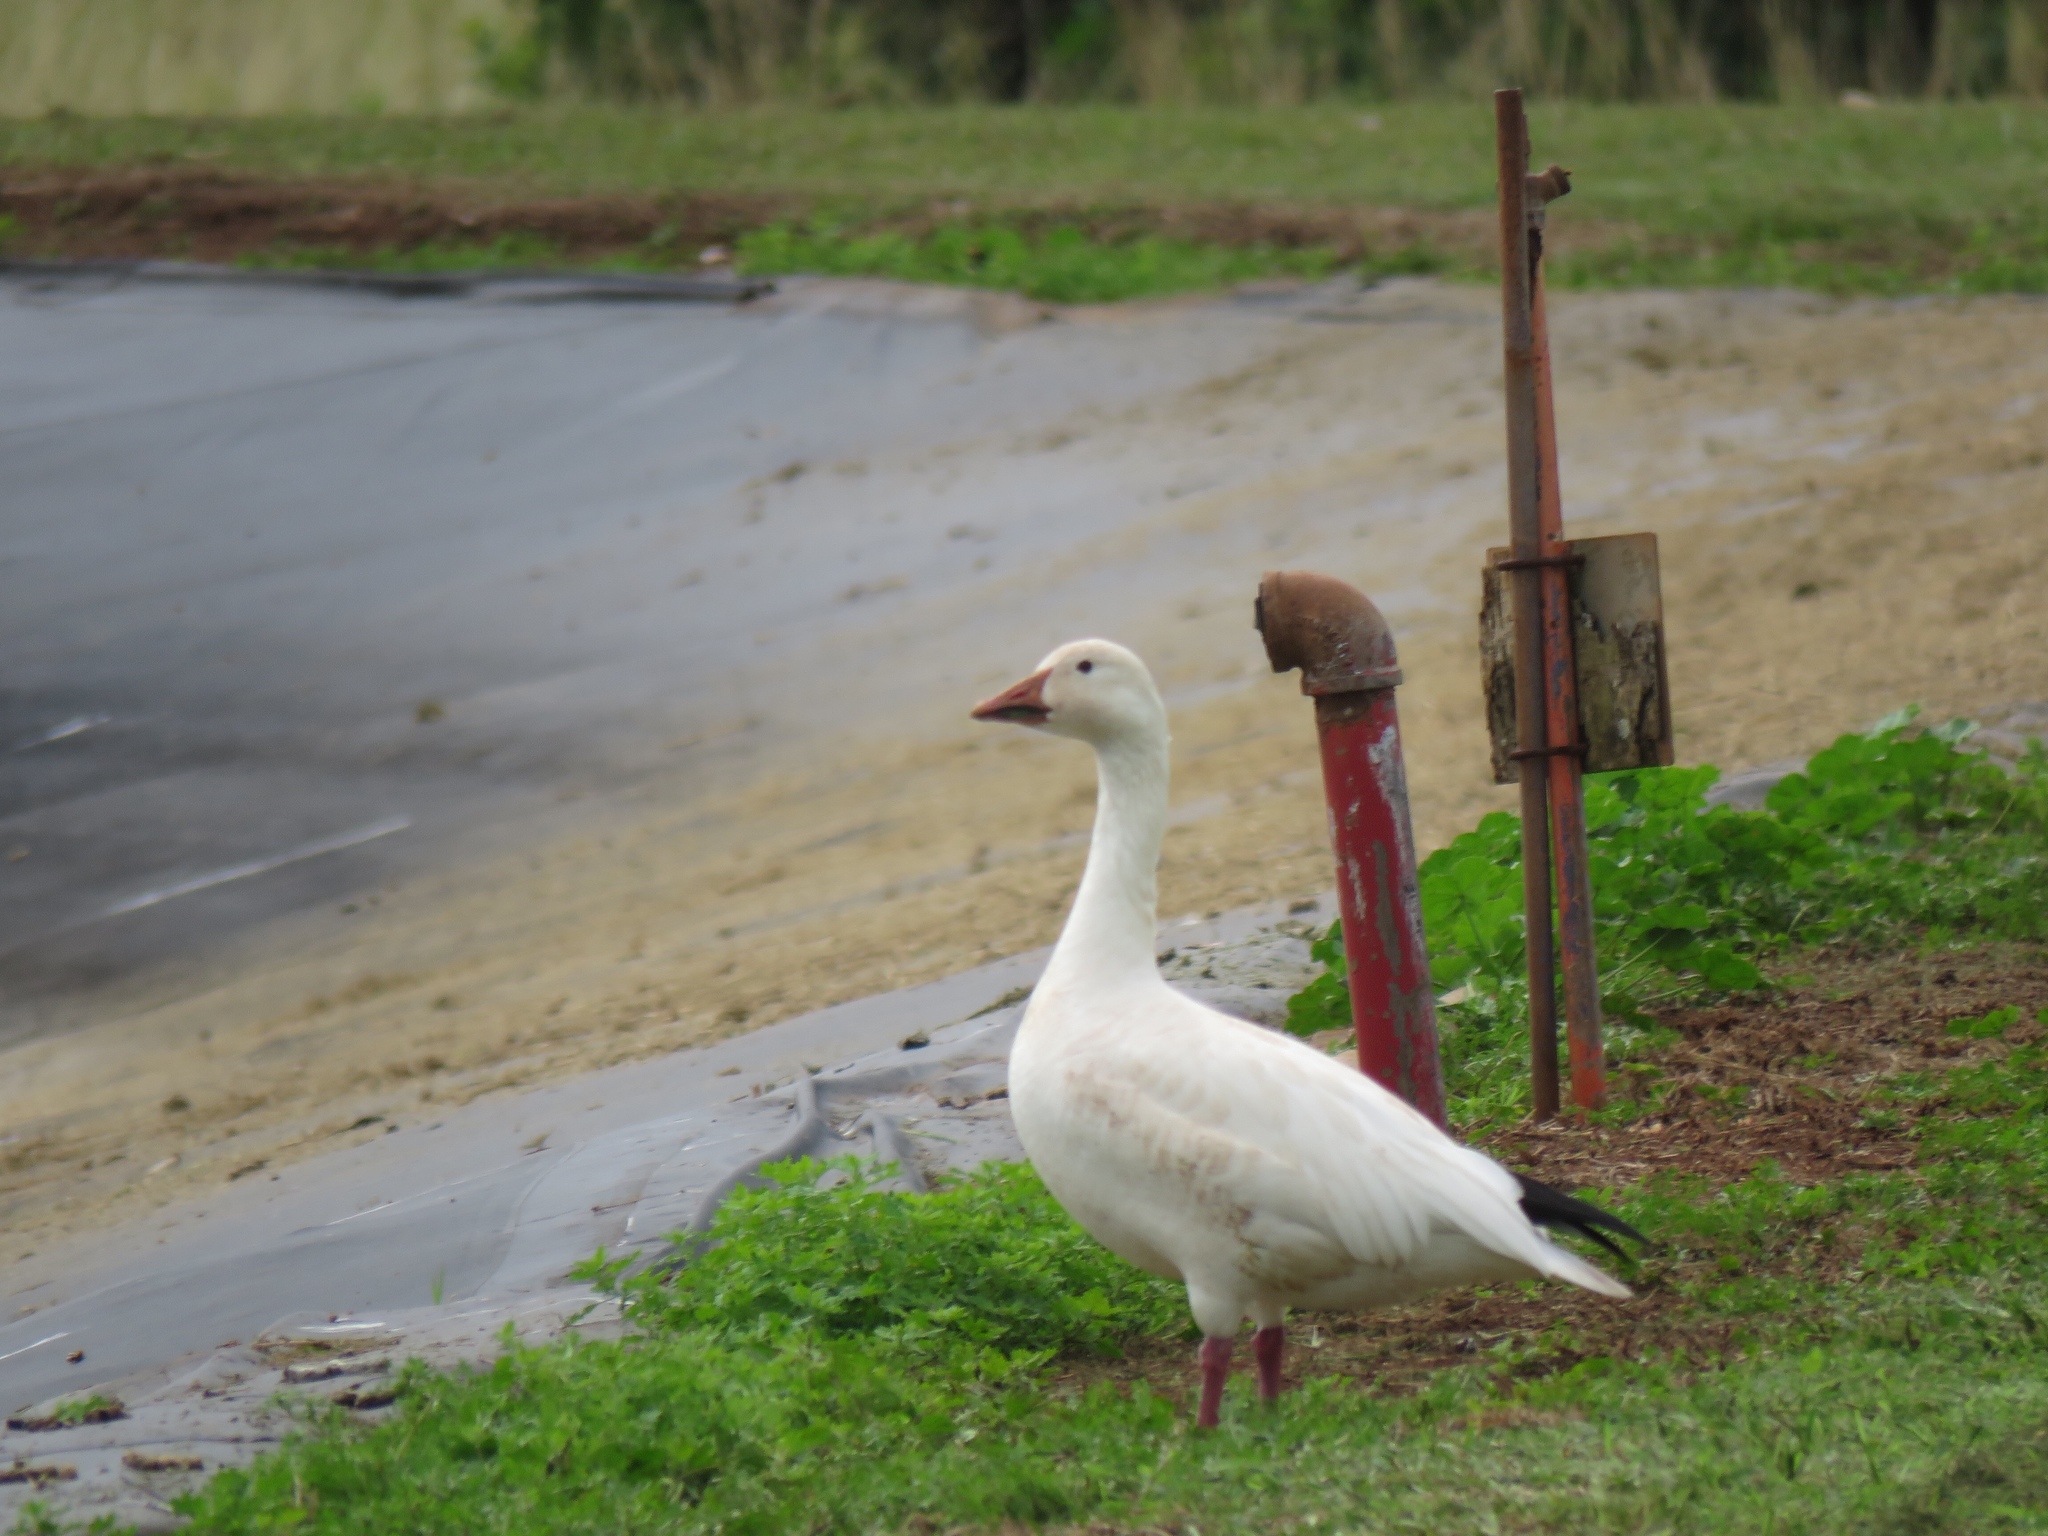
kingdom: Animalia
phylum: Chordata
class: Aves
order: Anseriformes
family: Anatidae
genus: Anser
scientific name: Anser caerulescens
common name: Snow goose
